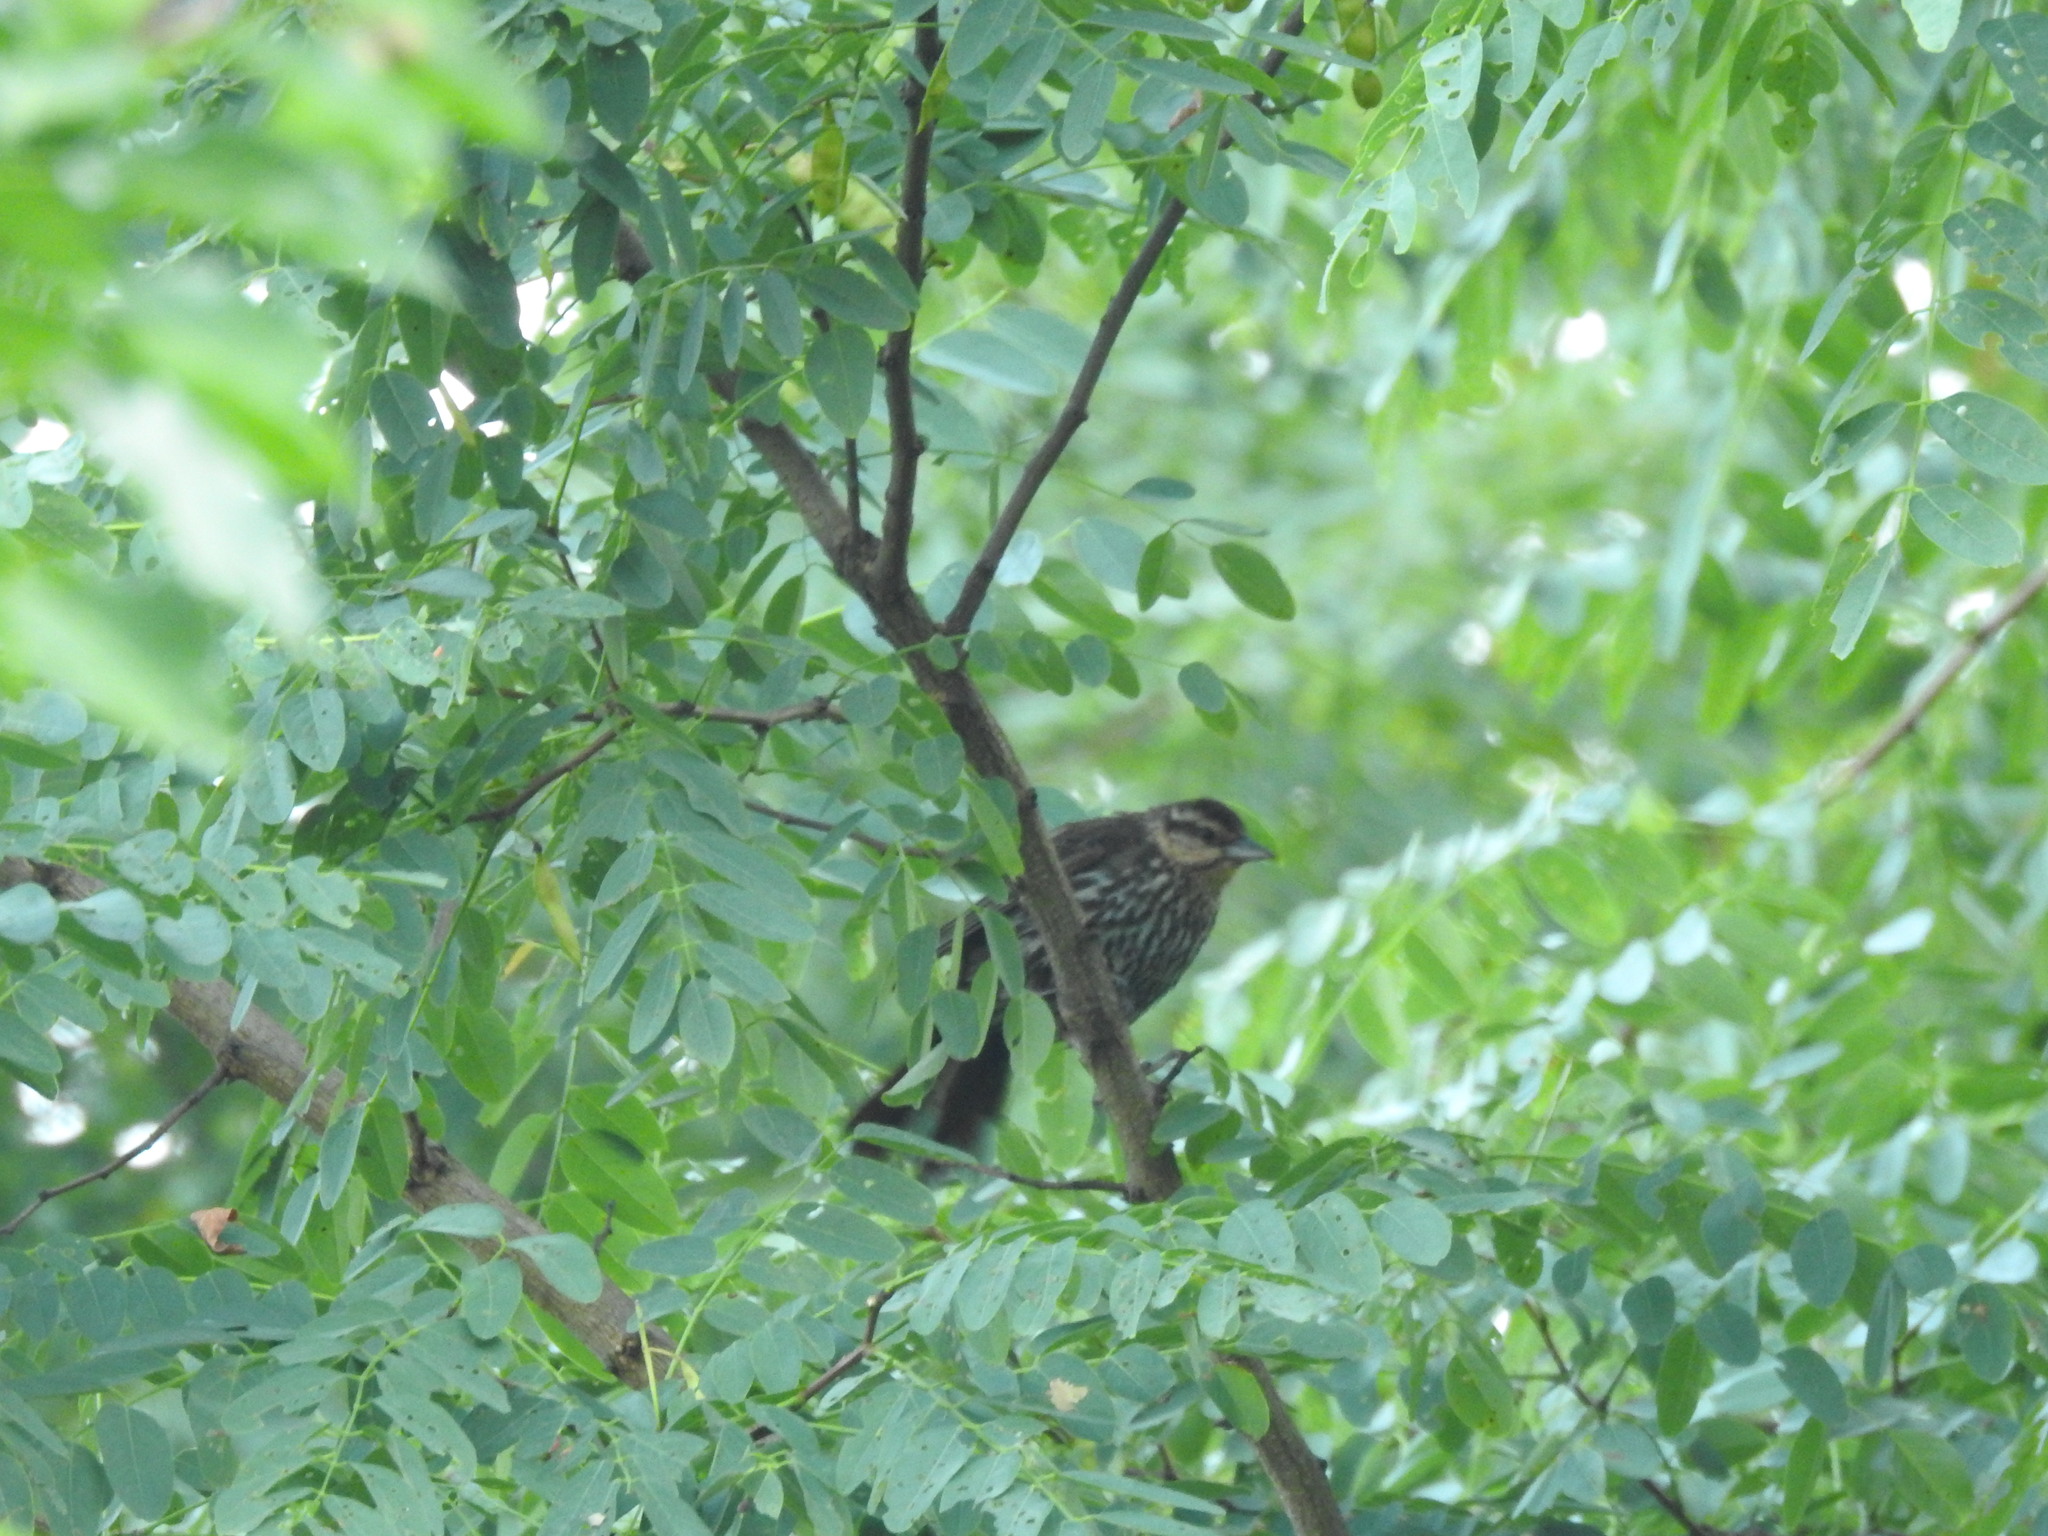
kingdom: Animalia
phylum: Chordata
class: Aves
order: Passeriformes
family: Icteridae
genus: Agelaius
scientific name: Agelaius phoeniceus
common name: Red-winged blackbird
